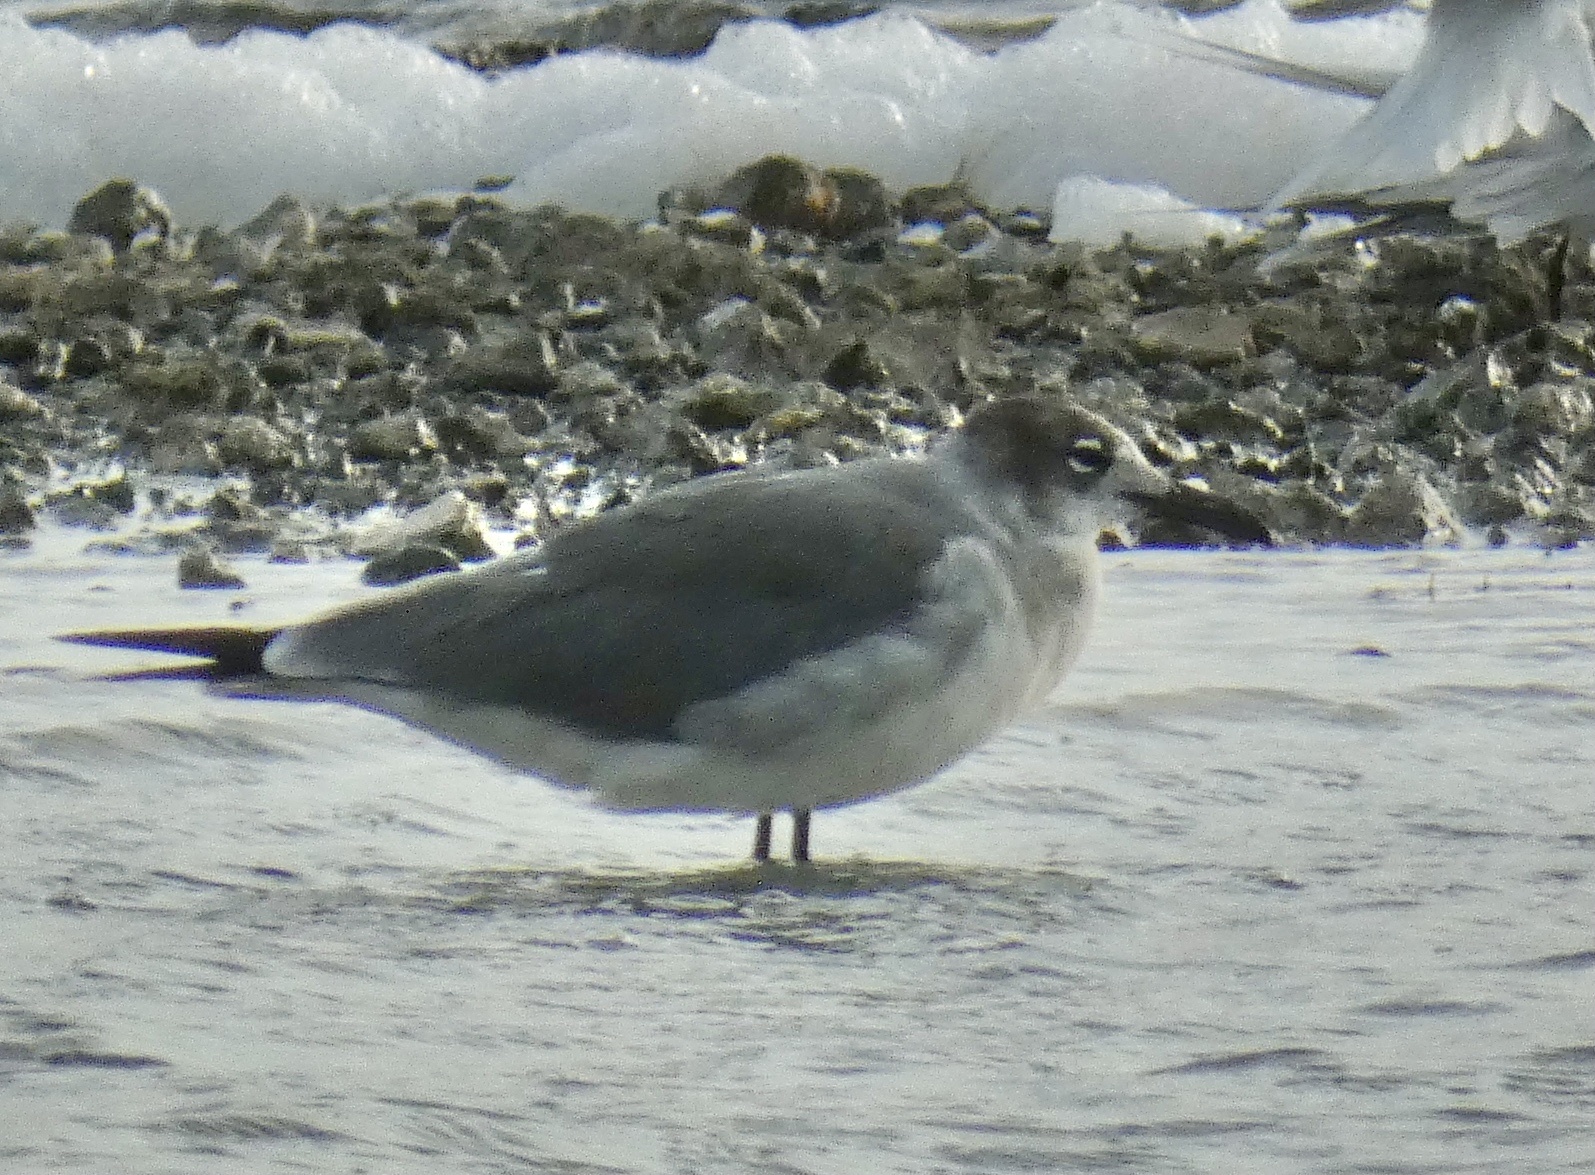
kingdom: Animalia
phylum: Chordata
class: Aves
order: Charadriiformes
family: Laridae
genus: Leucophaeus
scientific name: Leucophaeus atricilla
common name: Laughing gull
